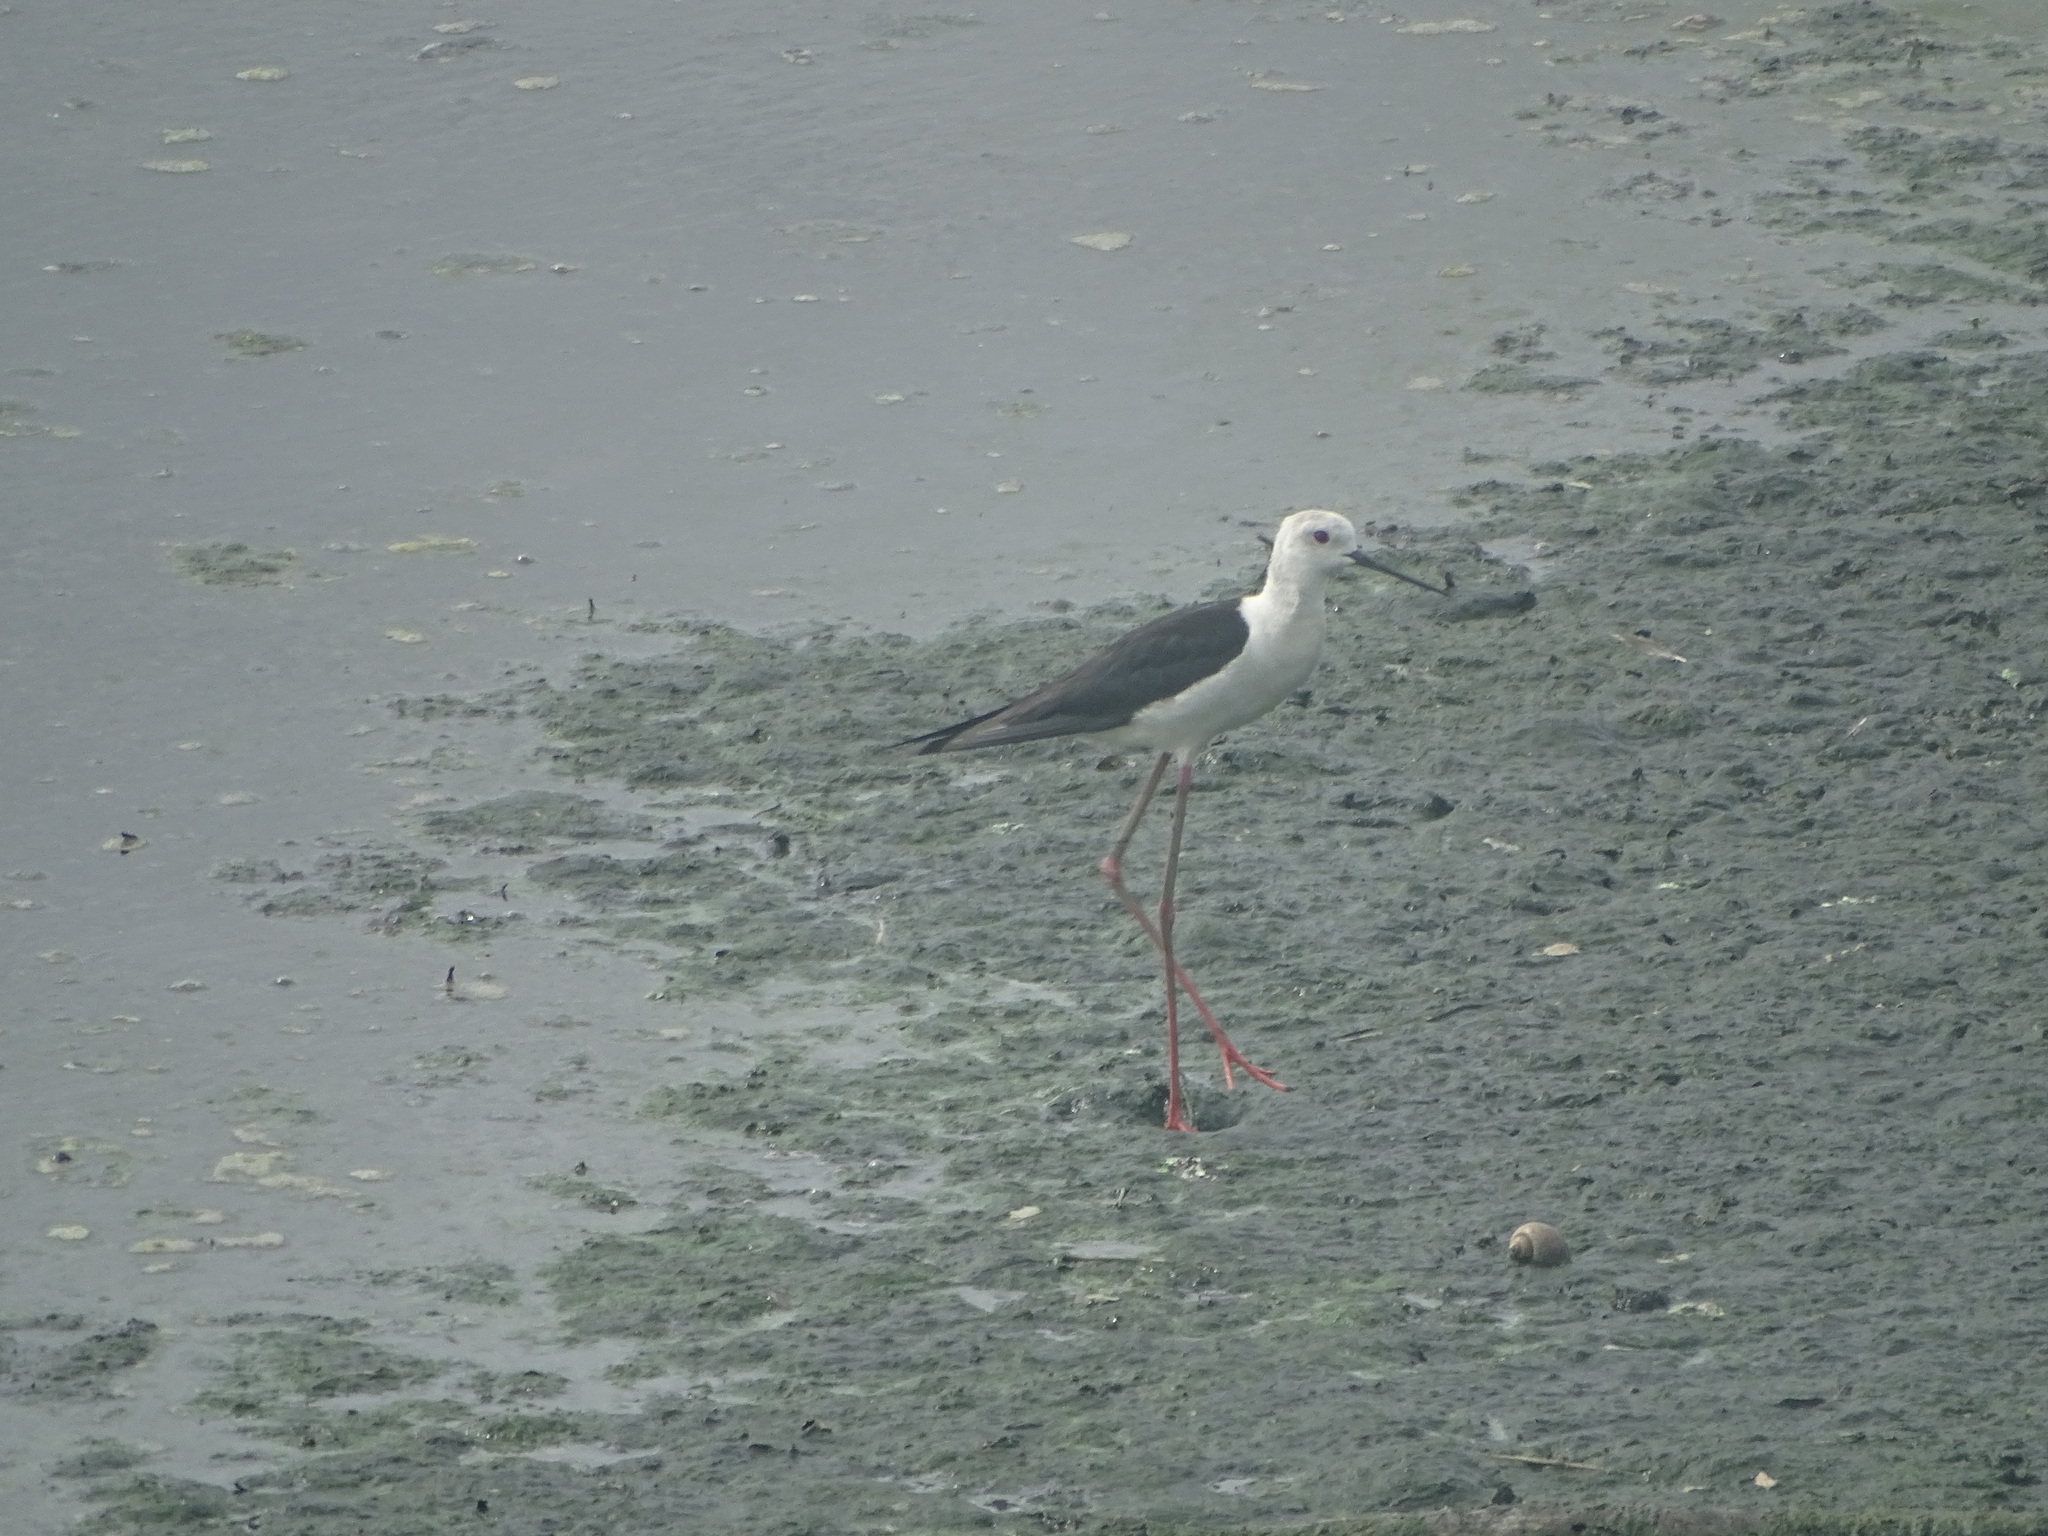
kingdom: Animalia
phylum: Chordata
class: Aves
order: Charadriiformes
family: Recurvirostridae
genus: Himantopus
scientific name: Himantopus himantopus
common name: Black-winged stilt
